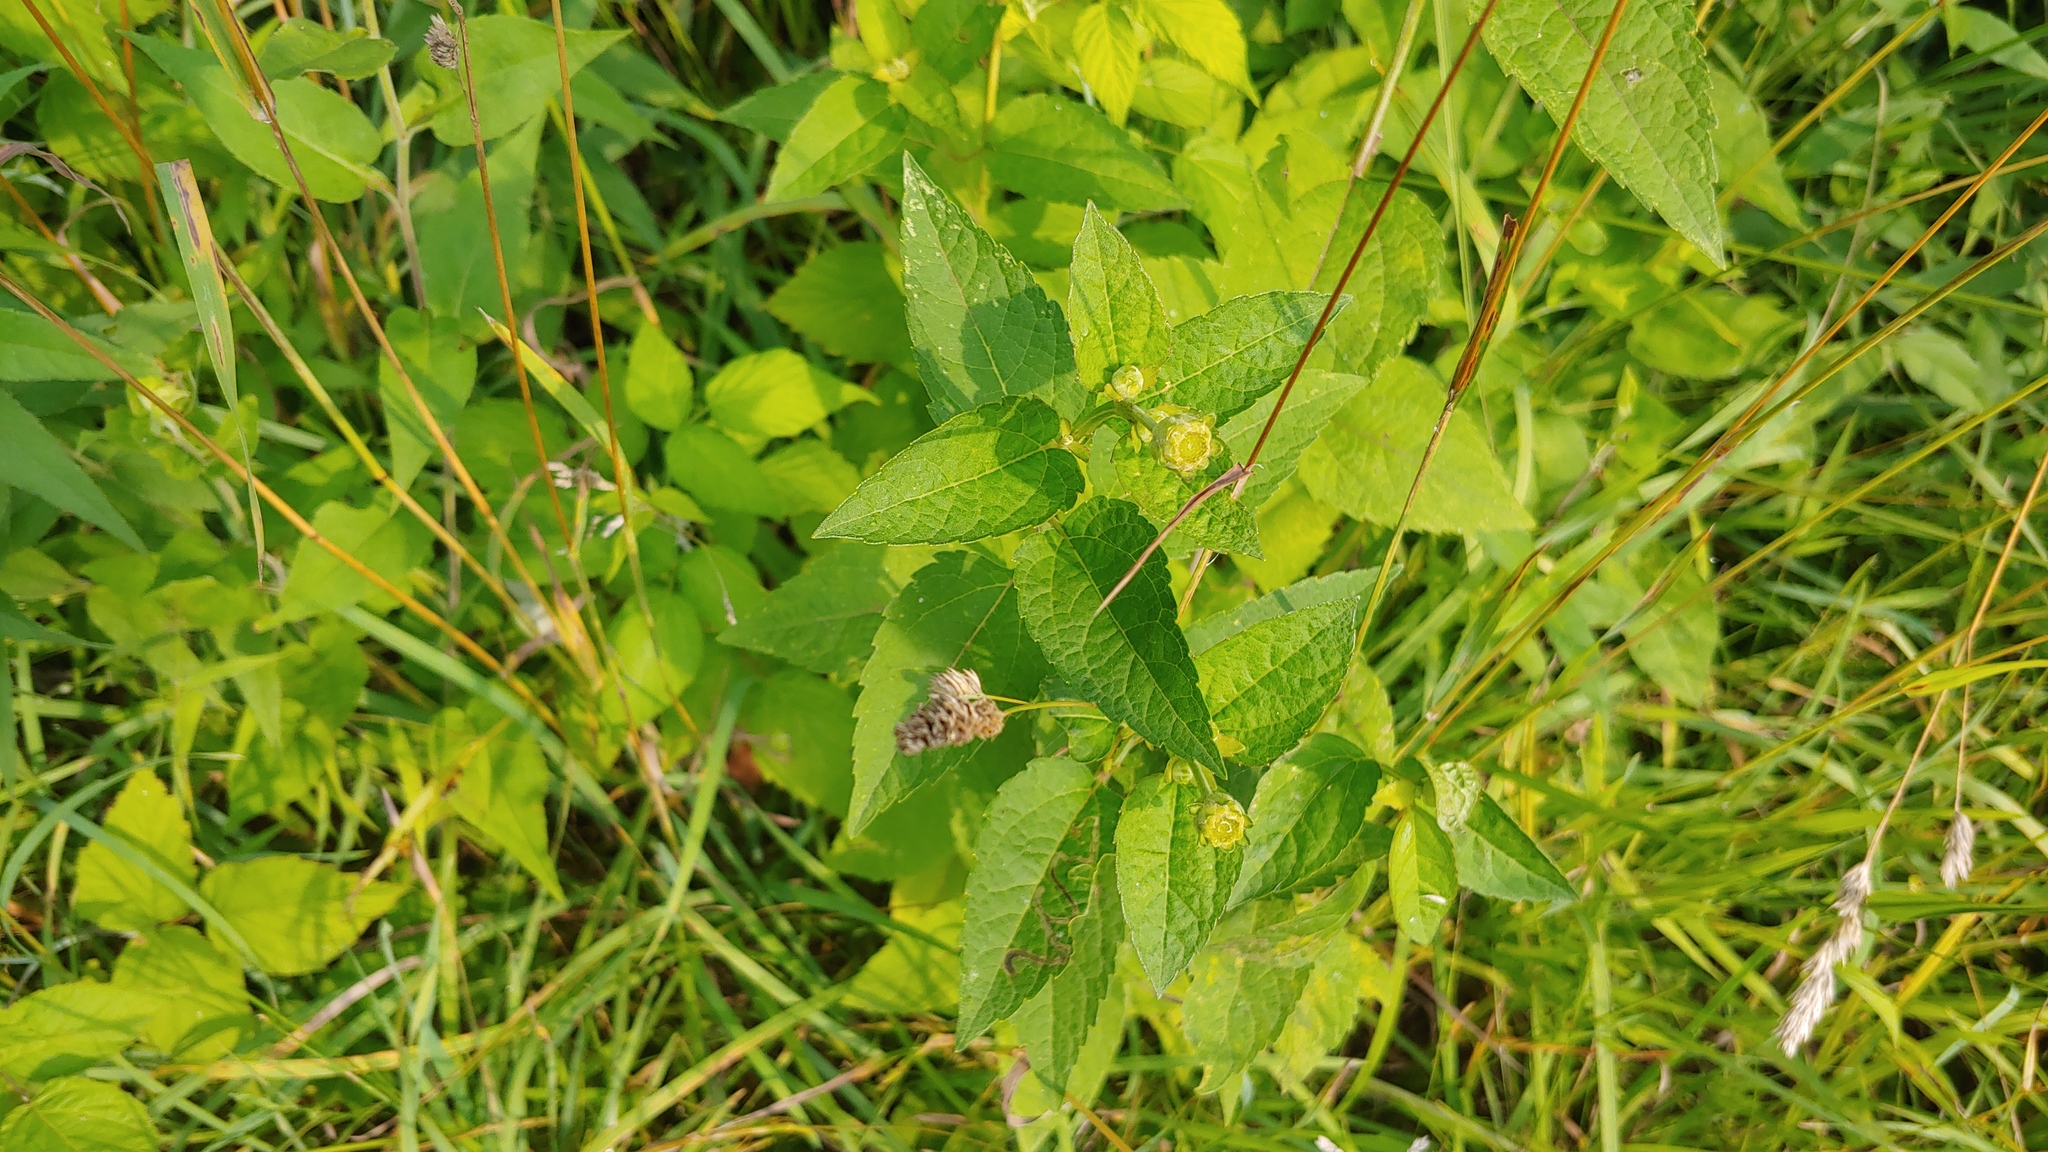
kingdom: Plantae
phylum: Tracheophyta
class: Magnoliopsida
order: Asterales
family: Asteraceae
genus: Heliopsis
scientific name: Heliopsis helianthoides
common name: False sunflower
